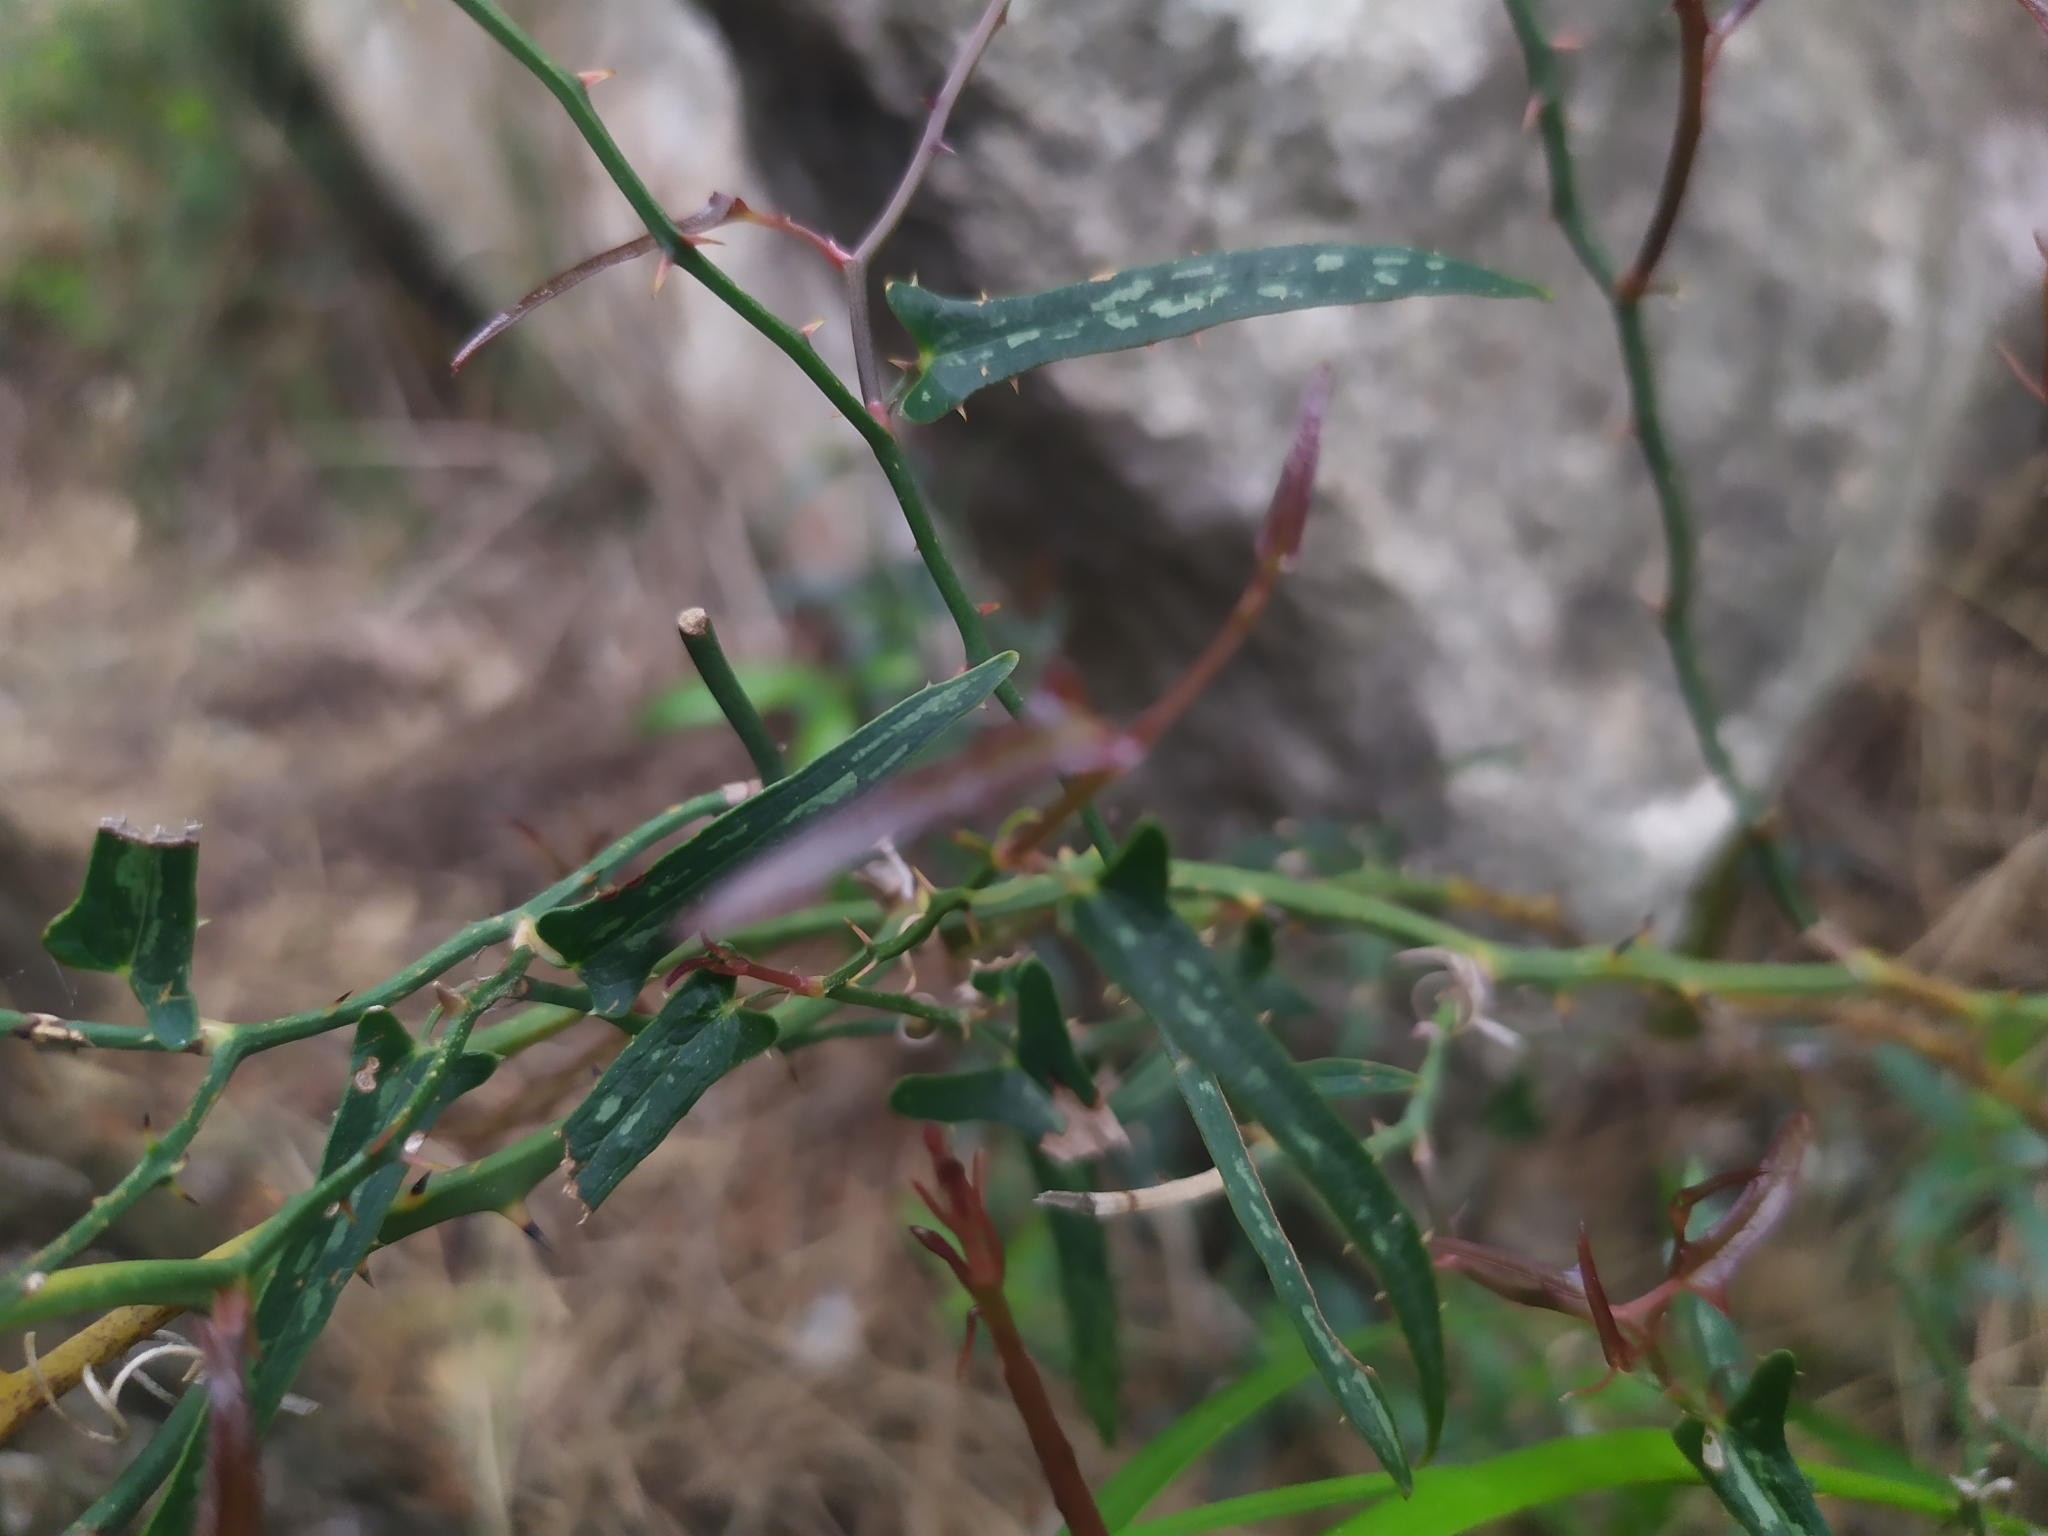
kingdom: Plantae
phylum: Tracheophyta
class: Liliopsida
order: Liliales
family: Smilacaceae
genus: Smilax
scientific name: Smilax aspera
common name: Common smilax
